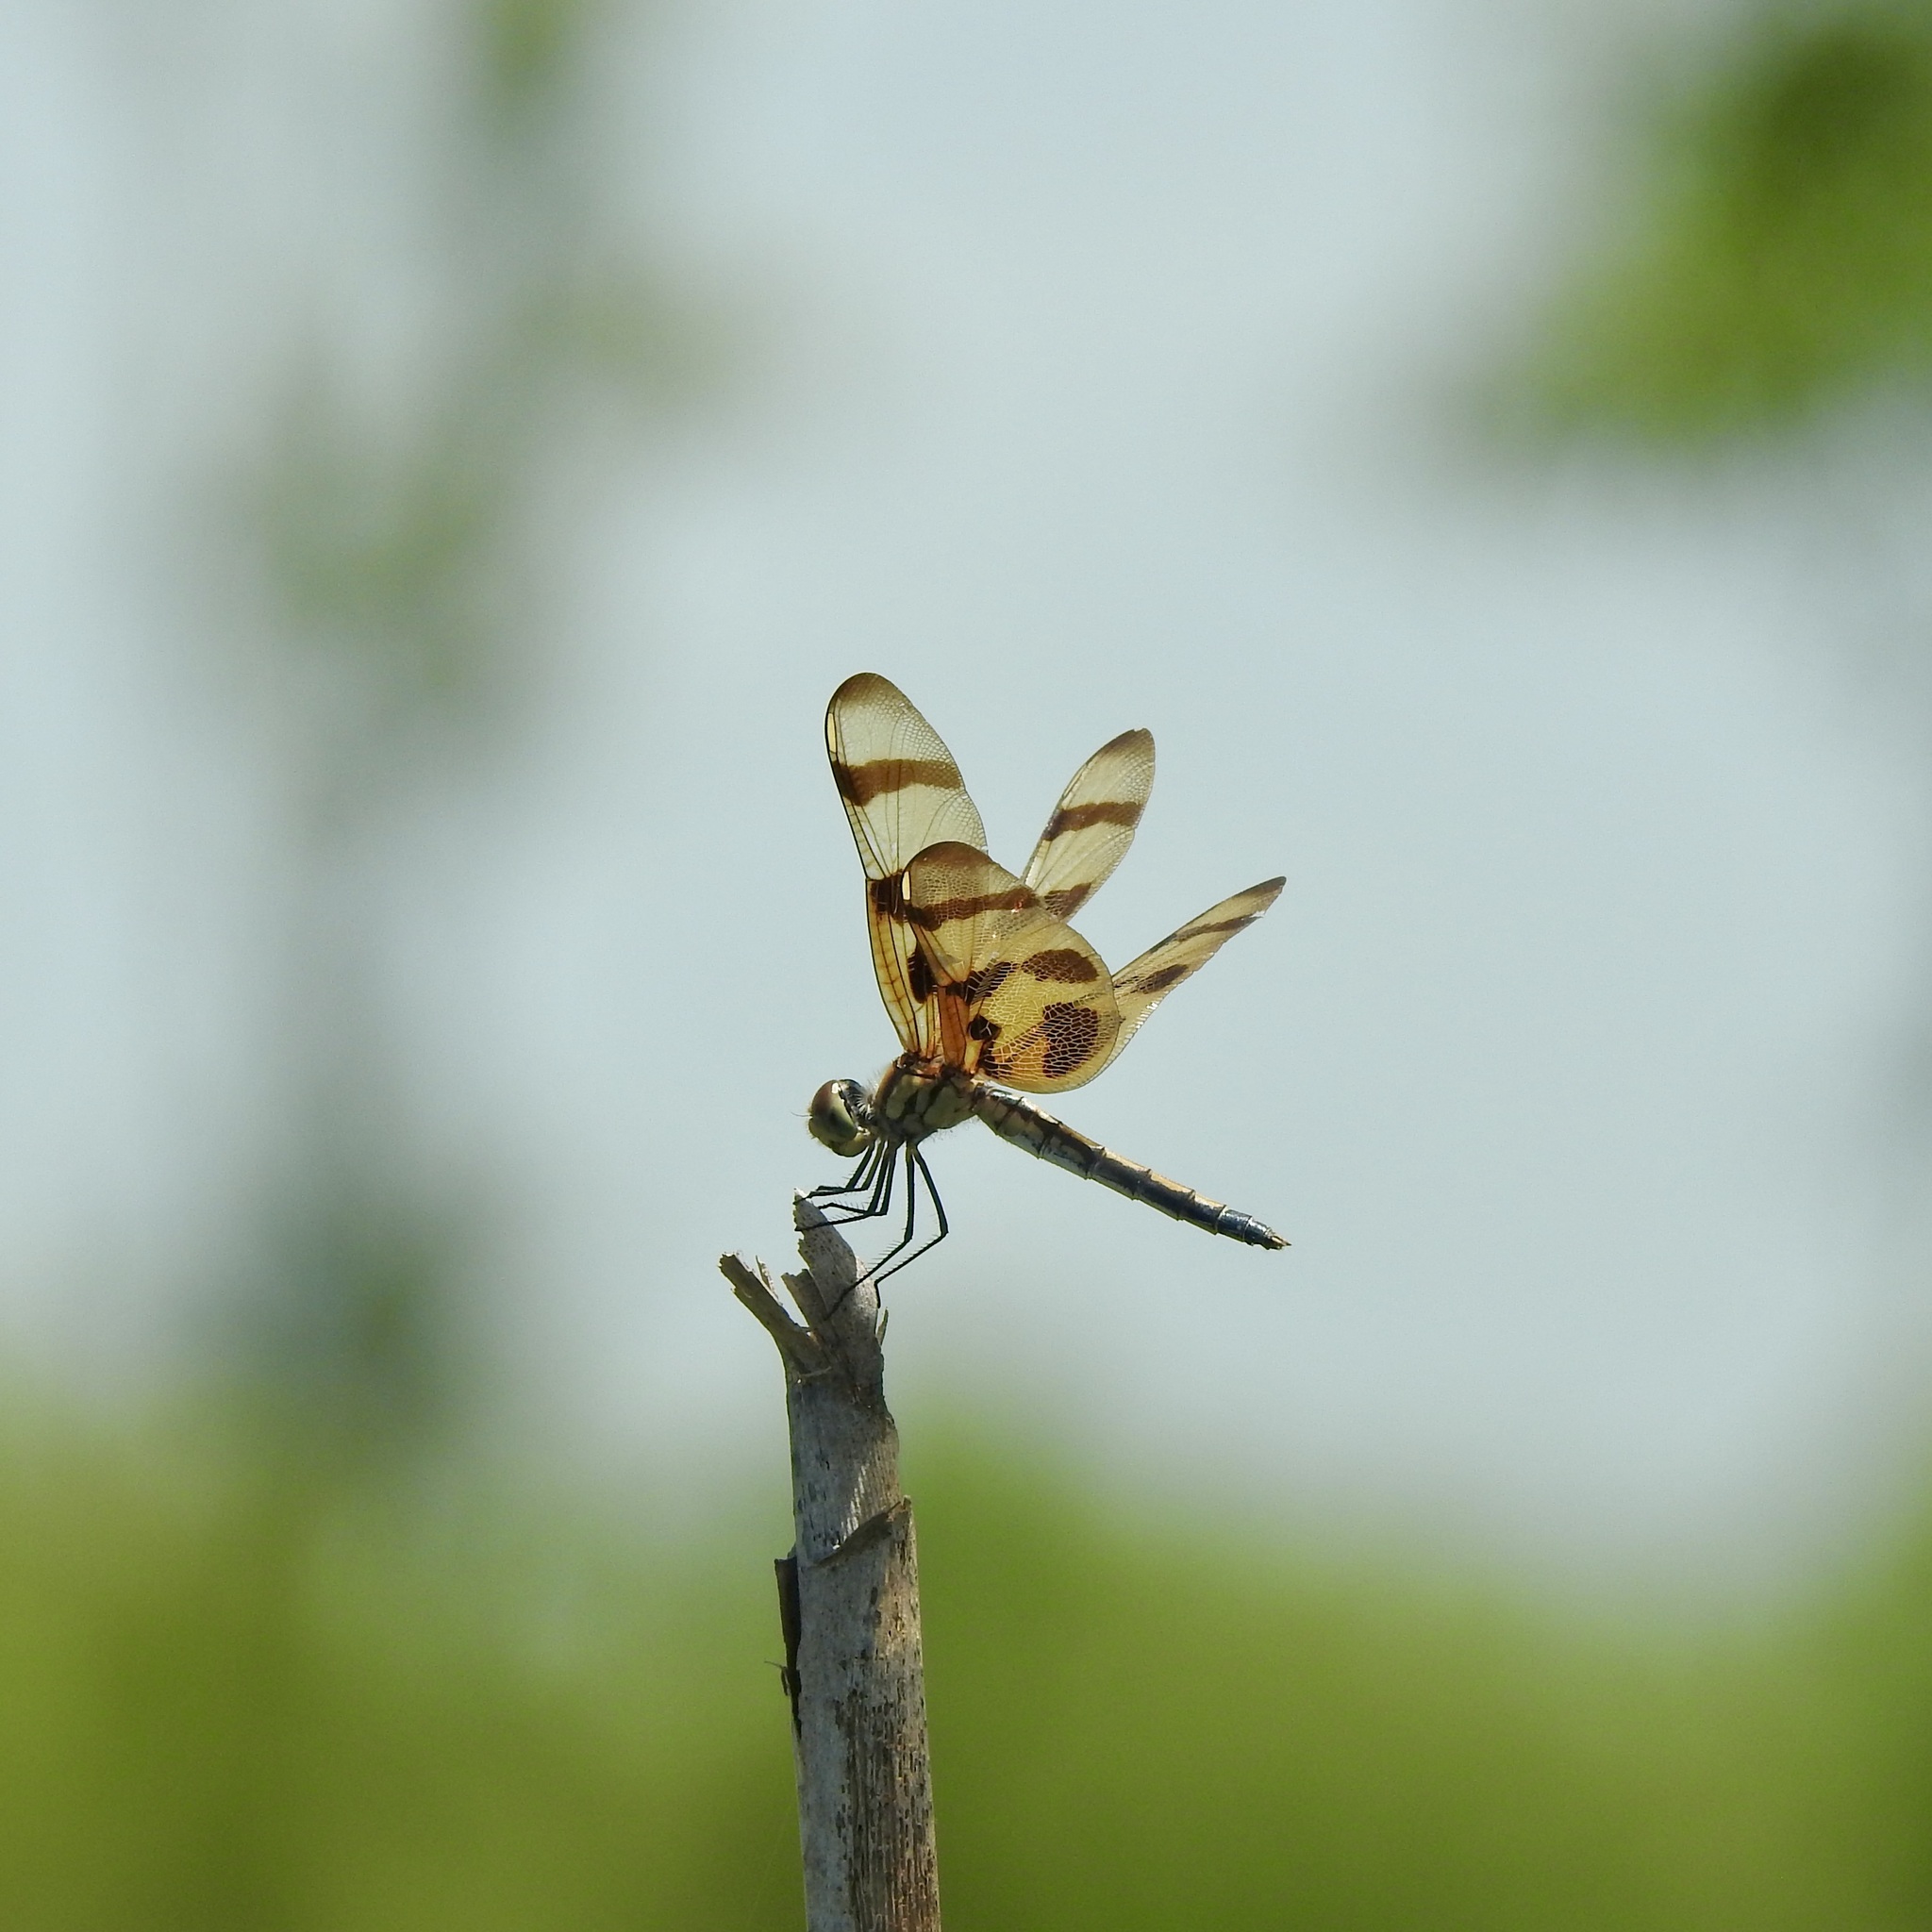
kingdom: Animalia
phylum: Arthropoda
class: Insecta
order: Odonata
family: Libellulidae
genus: Celithemis
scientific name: Celithemis eponina
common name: Halloween pennant
